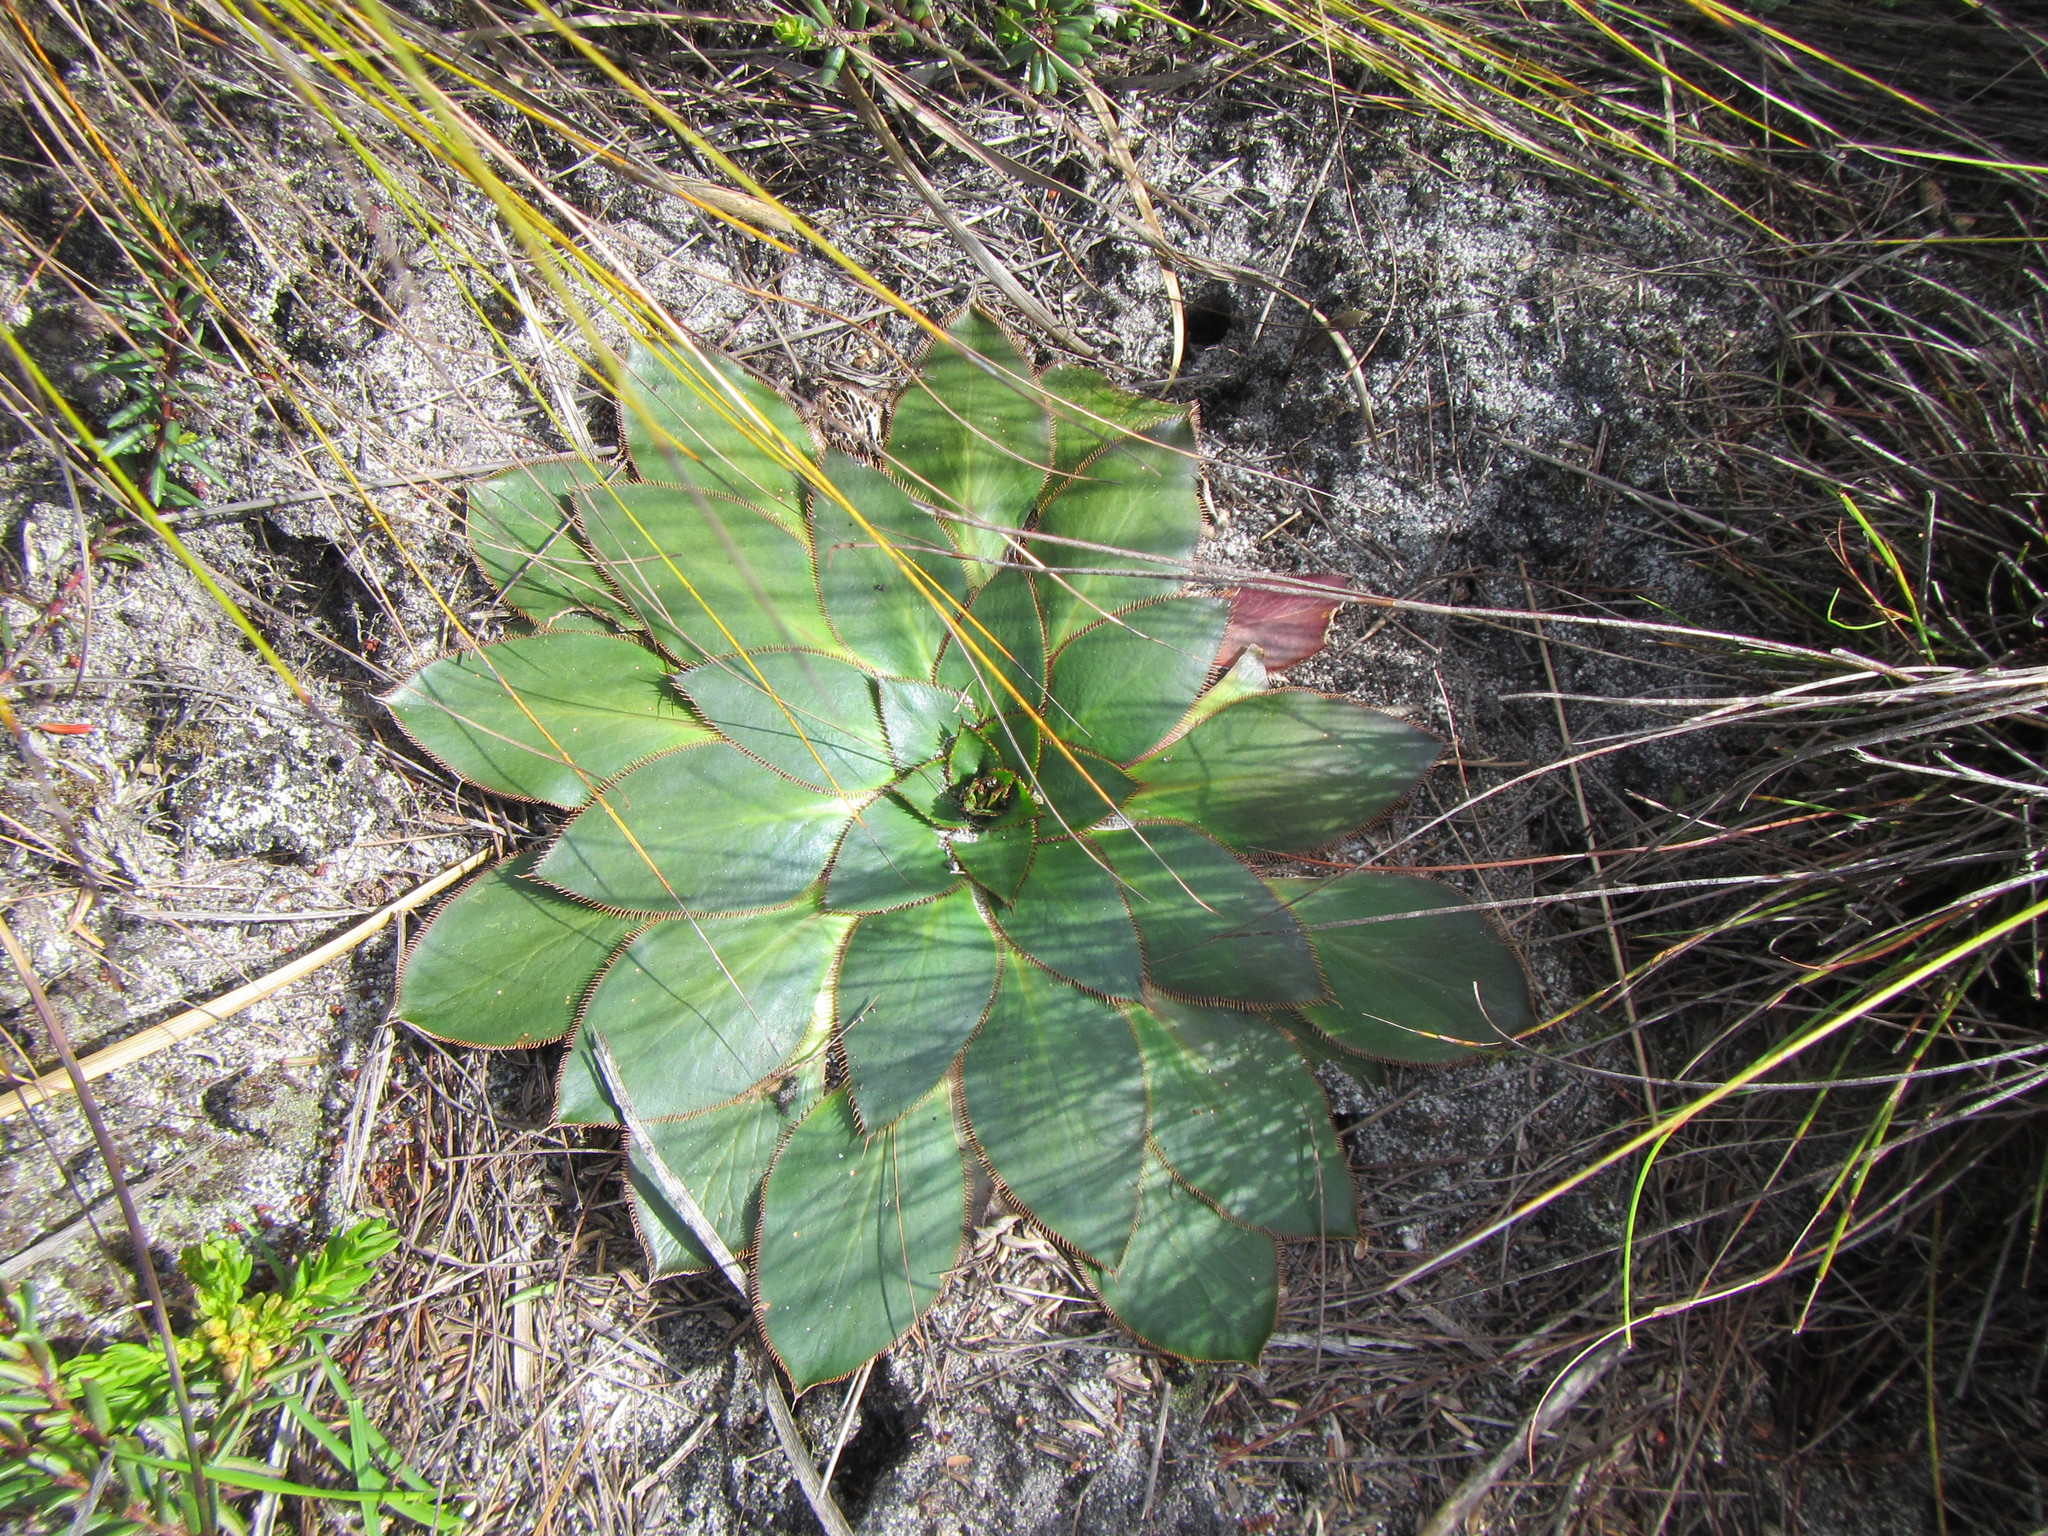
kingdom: Plantae
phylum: Tracheophyta
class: Magnoliopsida
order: Apiales
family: Apiaceae
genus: Hermas
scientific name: Hermas ciliata
